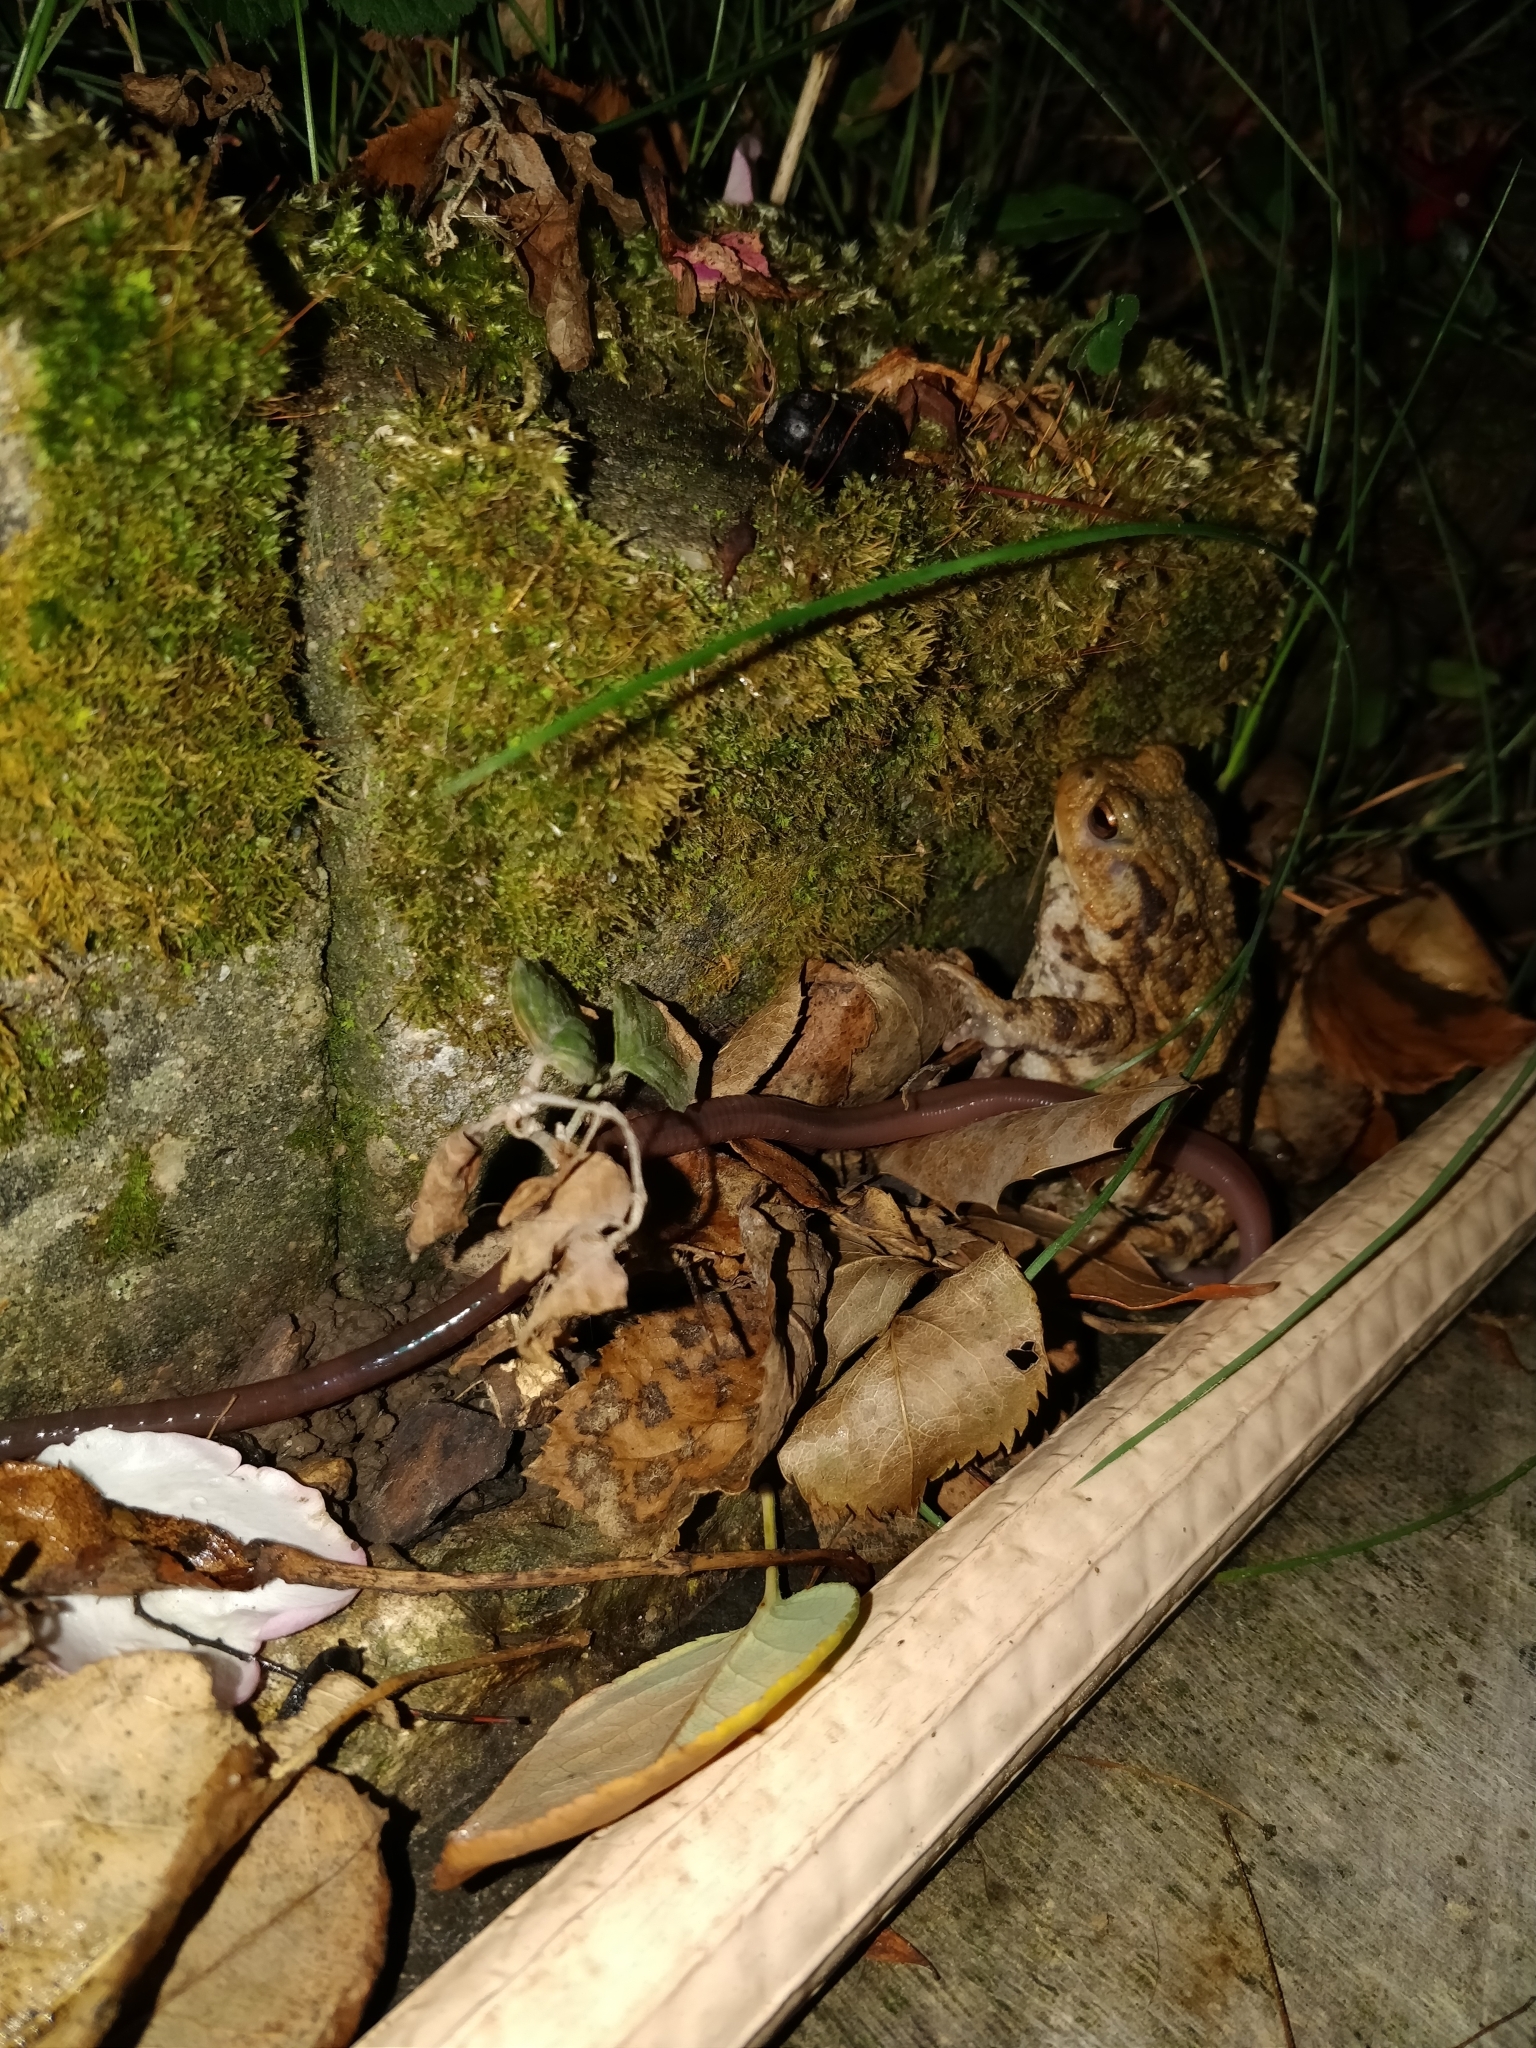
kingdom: Animalia
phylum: Chordata
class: Amphibia
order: Anura
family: Bufonidae
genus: Bufo
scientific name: Bufo bufo
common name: Common toad
